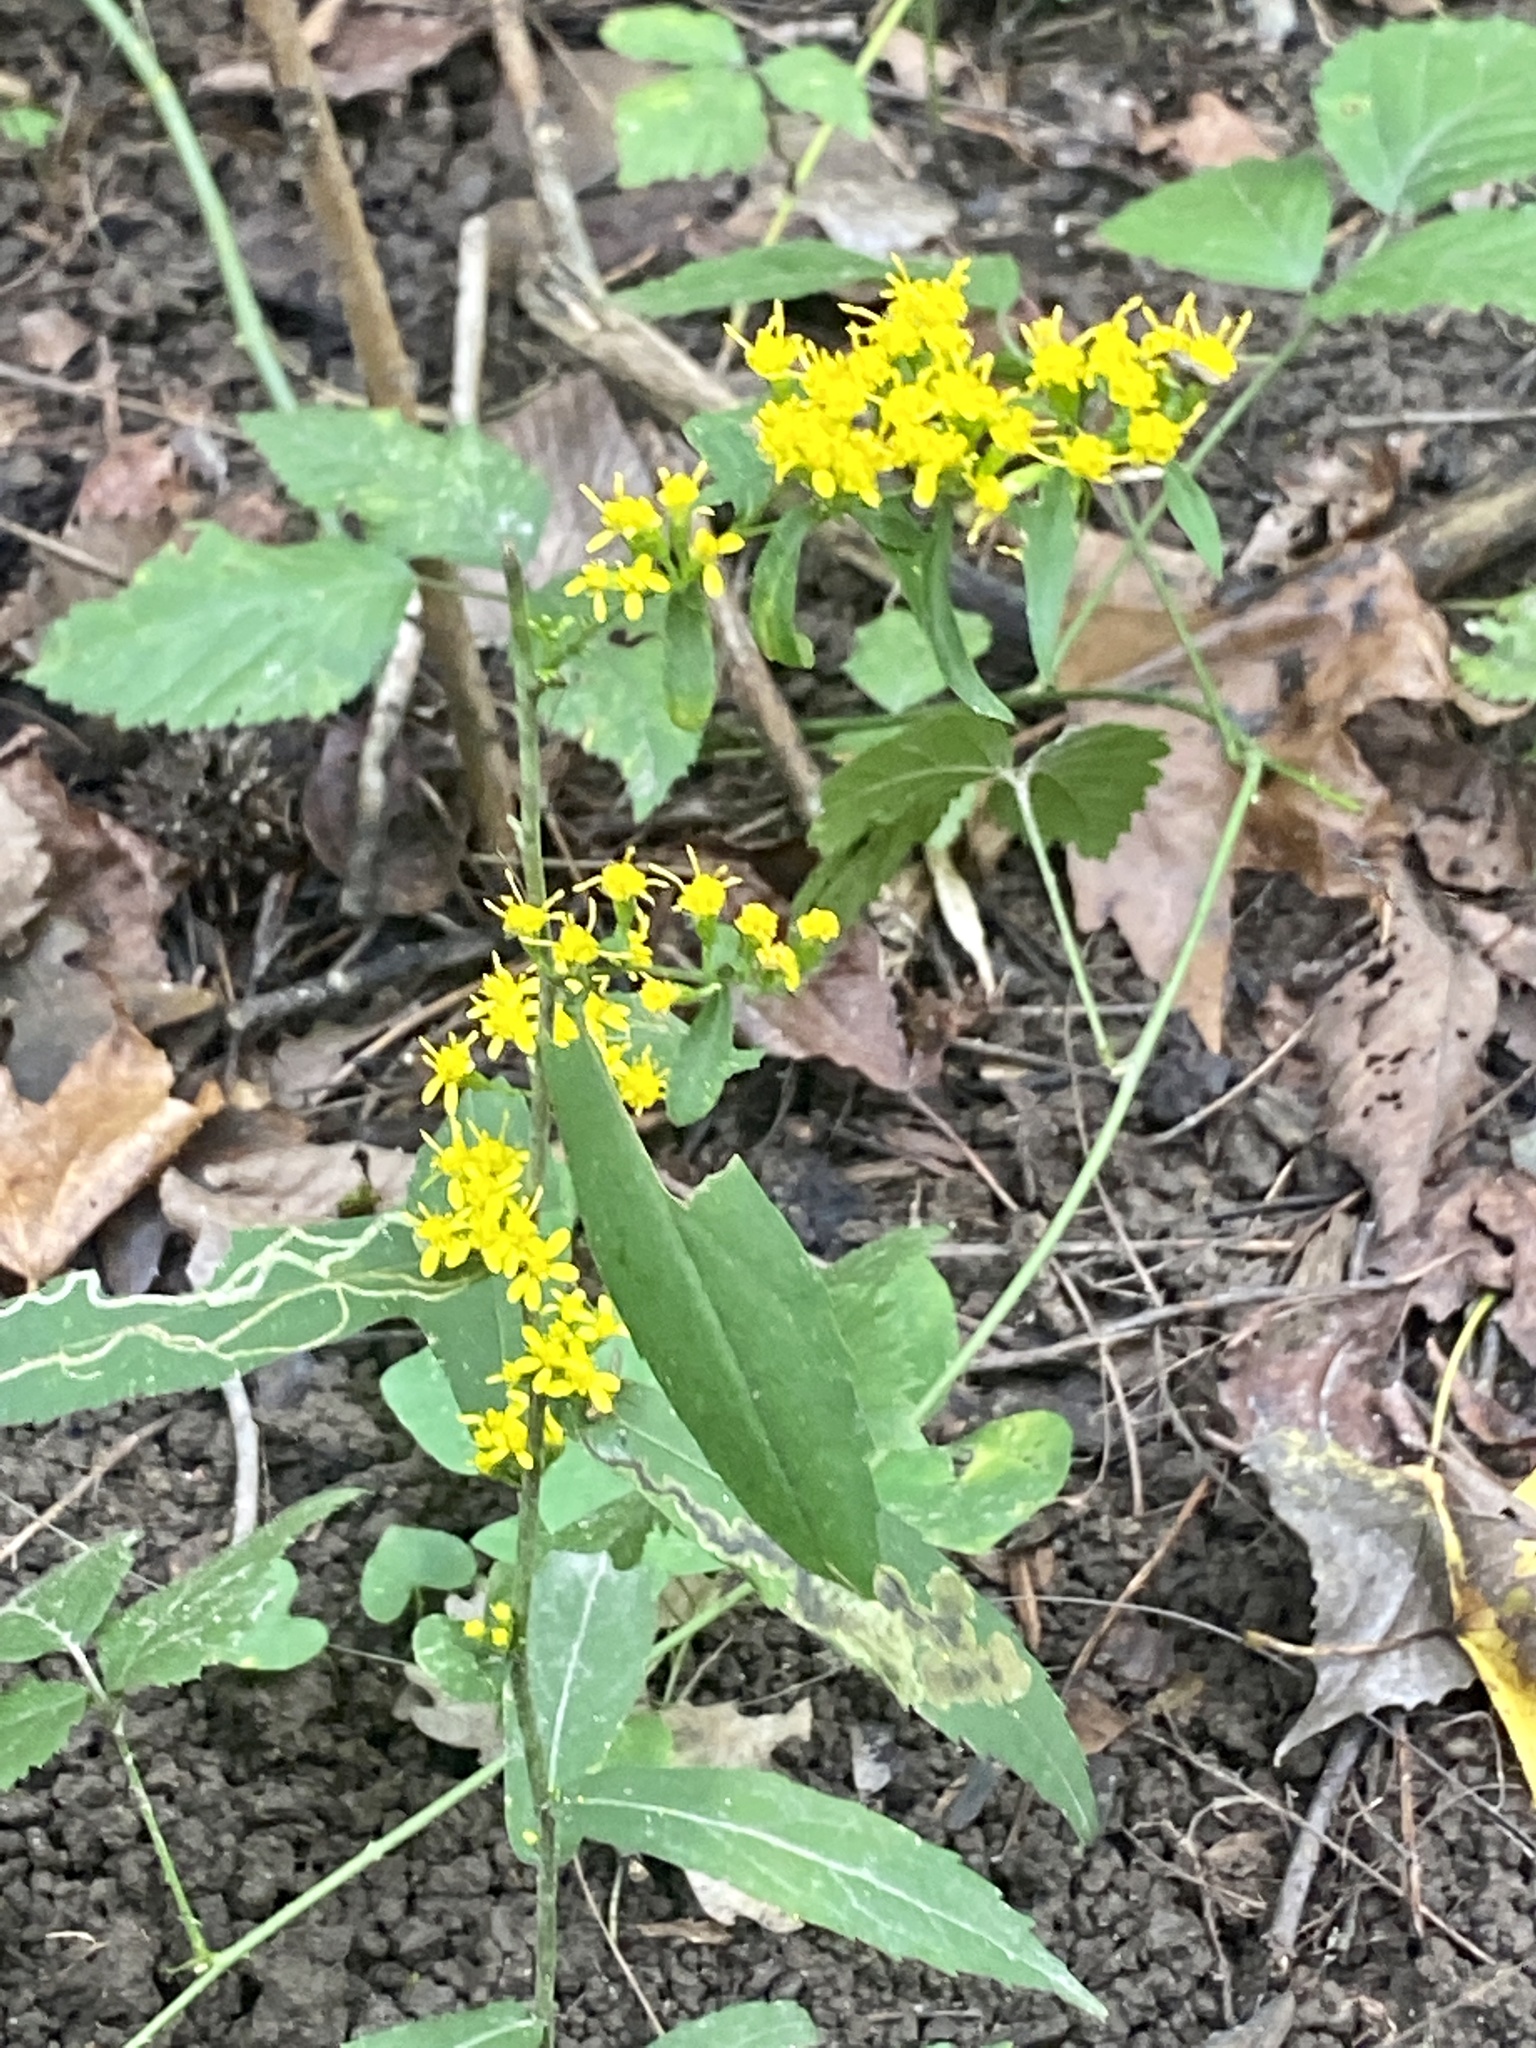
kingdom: Plantae
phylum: Tracheophyta
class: Magnoliopsida
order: Asterales
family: Asteraceae
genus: Solidago
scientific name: Solidago caesia
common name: Woodland goldenrod
